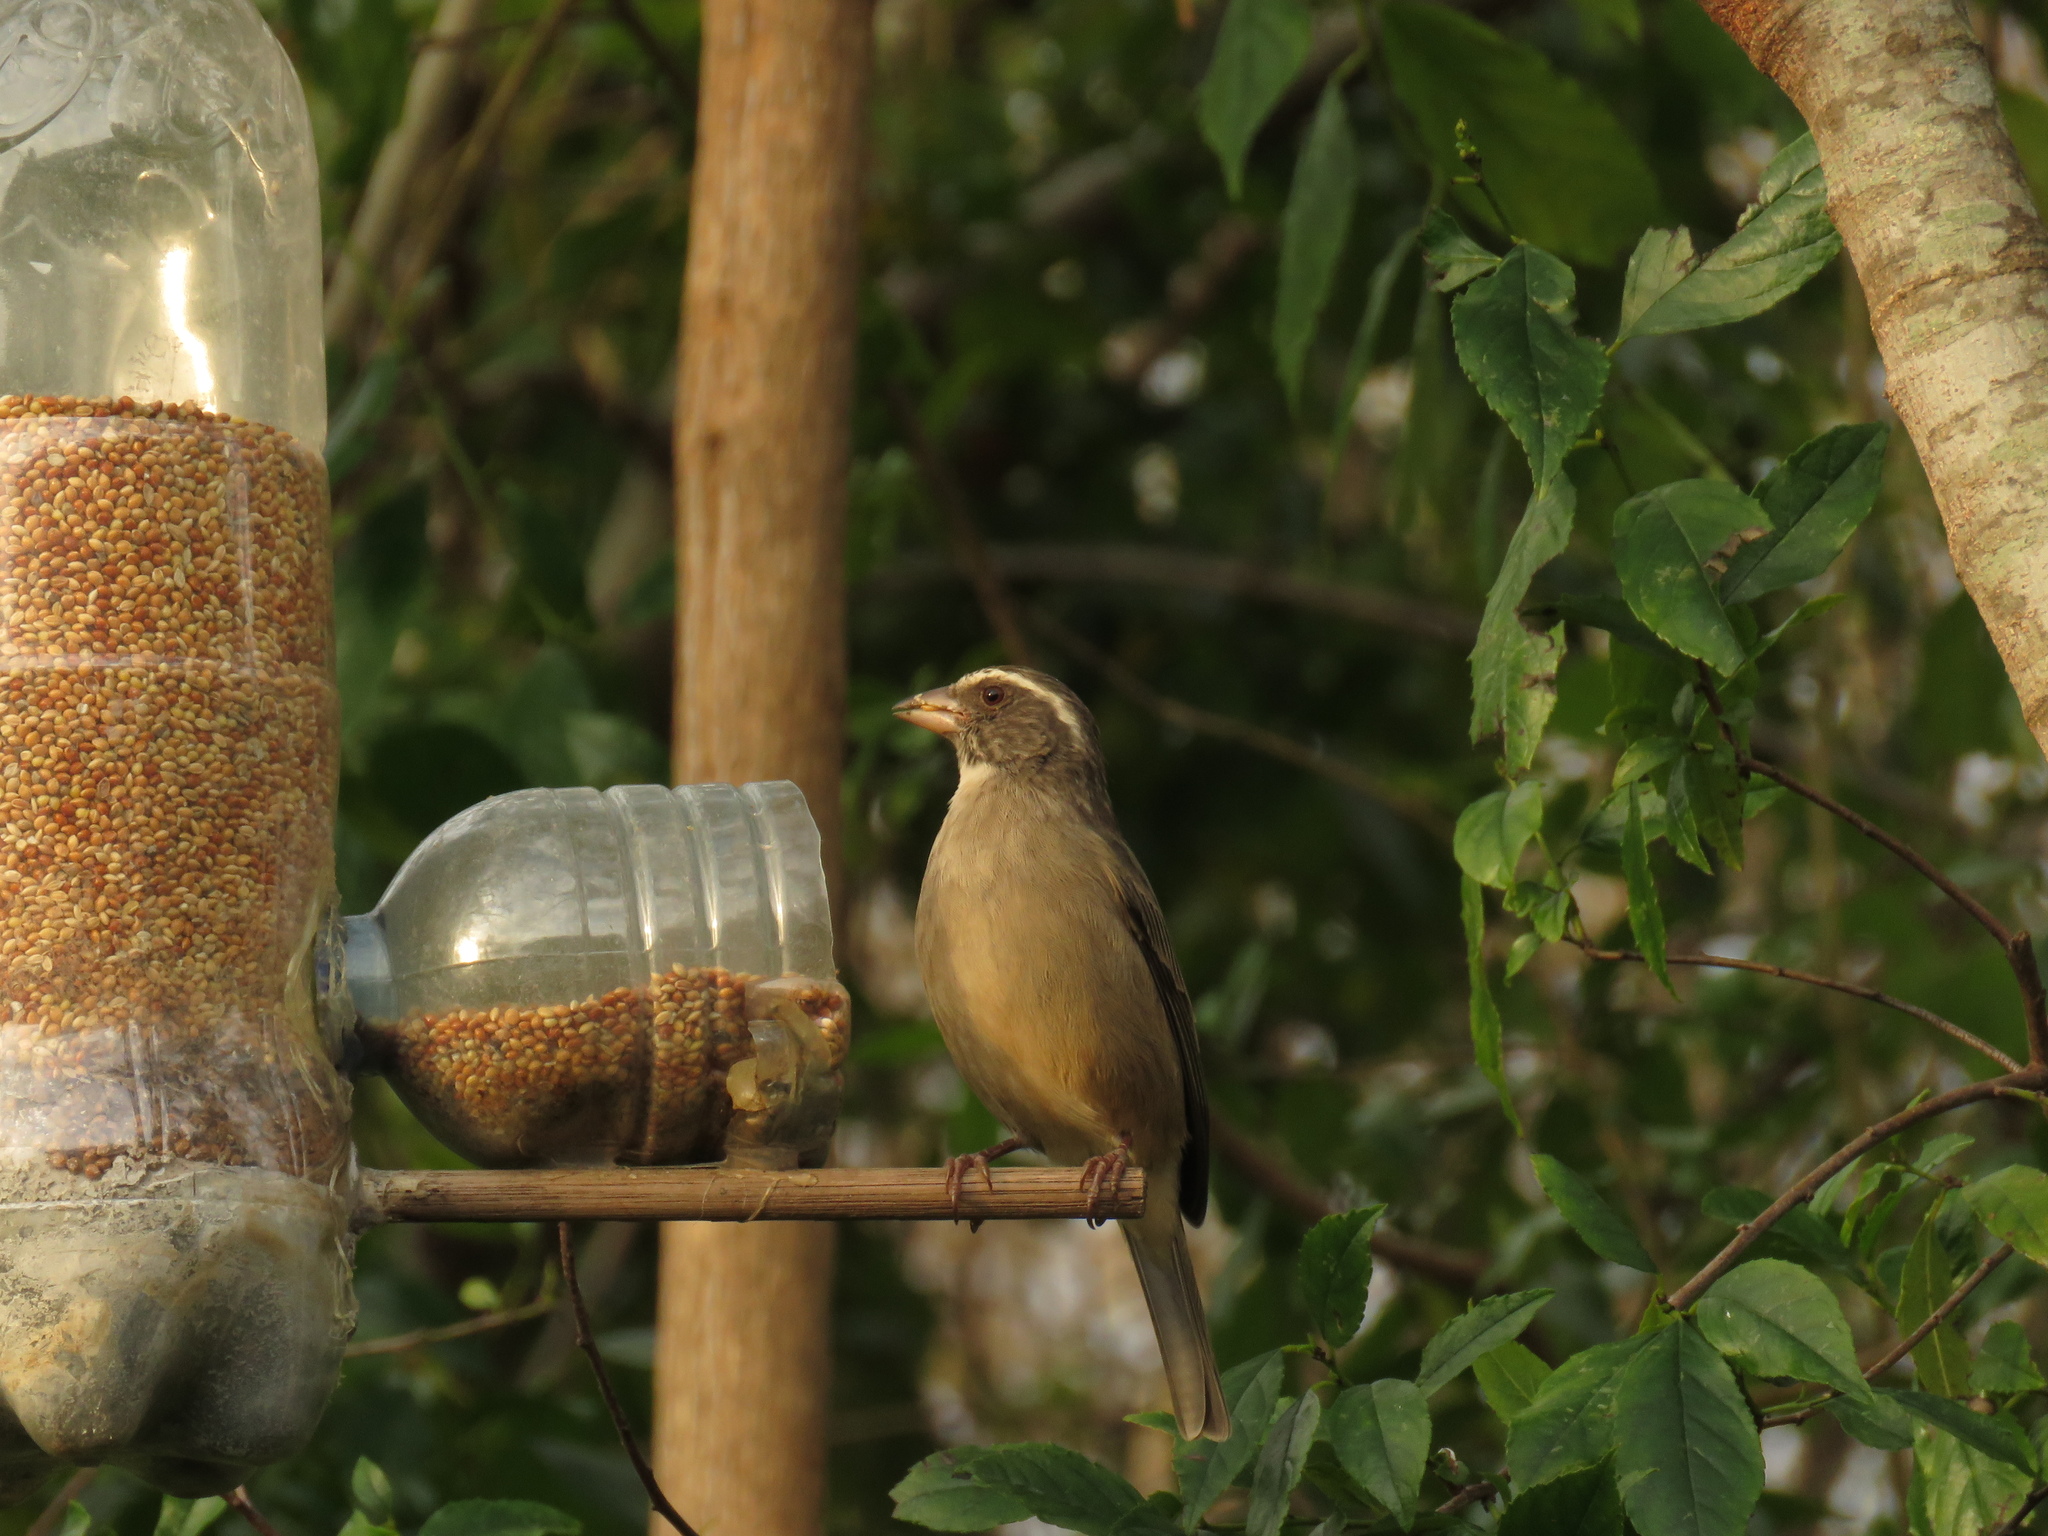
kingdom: Animalia
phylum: Chordata
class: Aves
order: Passeriformes
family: Fringillidae
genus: Crithagra
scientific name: Crithagra gularis
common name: Streaky-headed seedeater
